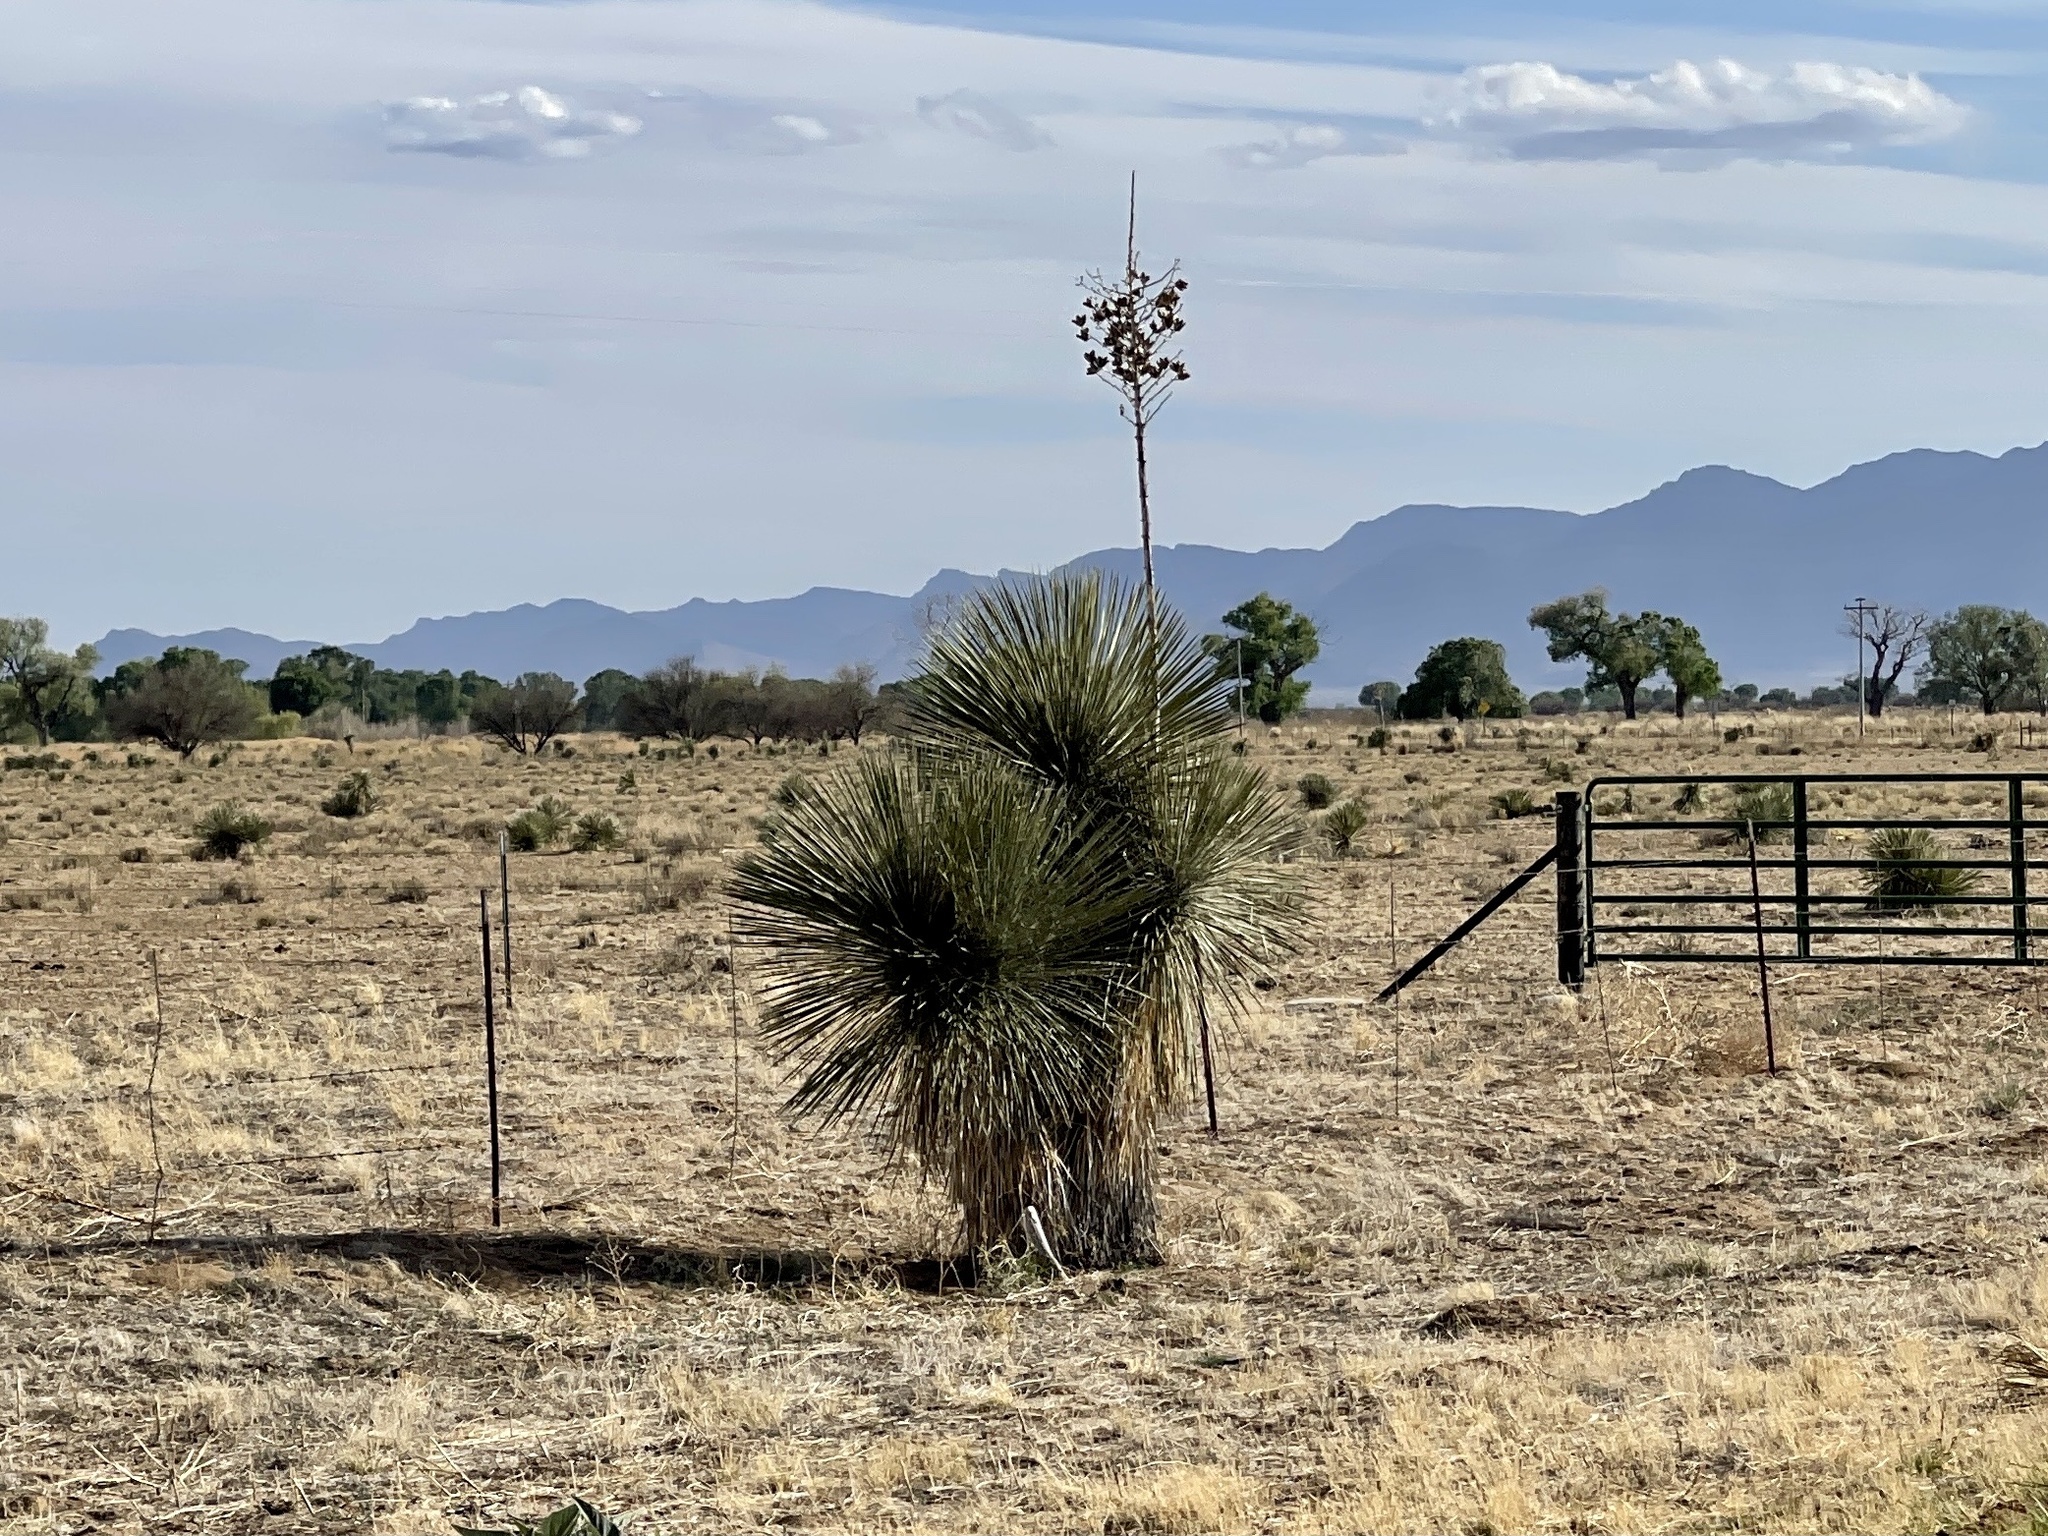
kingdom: Plantae
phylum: Tracheophyta
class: Liliopsida
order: Asparagales
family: Asparagaceae
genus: Yucca
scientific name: Yucca elata
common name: Palmella
